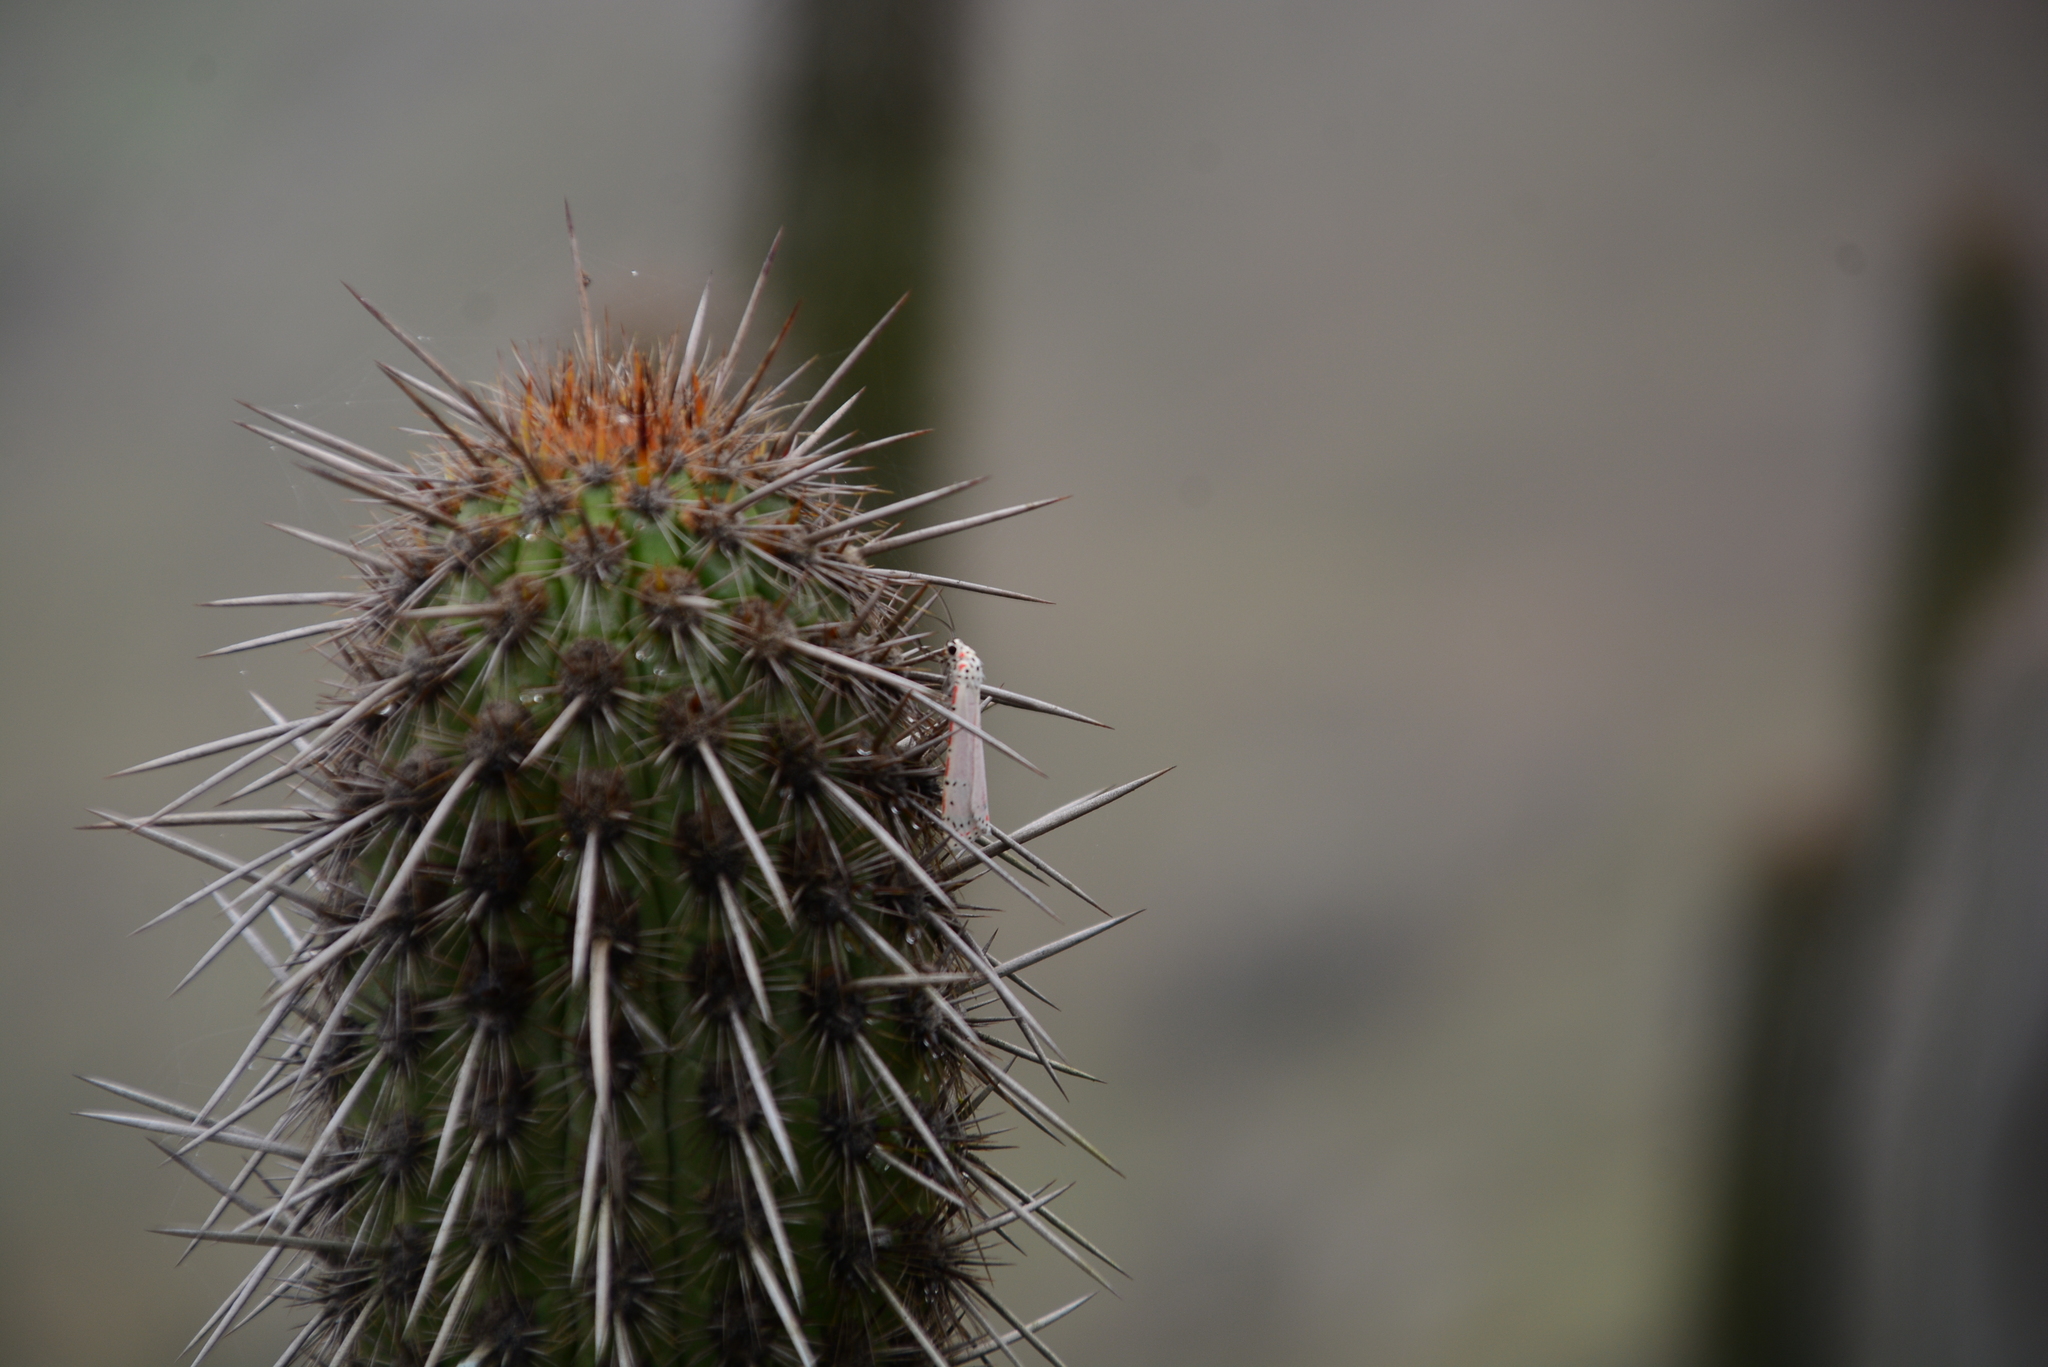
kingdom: Animalia
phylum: Arthropoda
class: Insecta
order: Lepidoptera
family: Erebidae
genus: Utetheisa
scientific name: Utetheisa ornatrix
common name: Beautiful utetheisa
